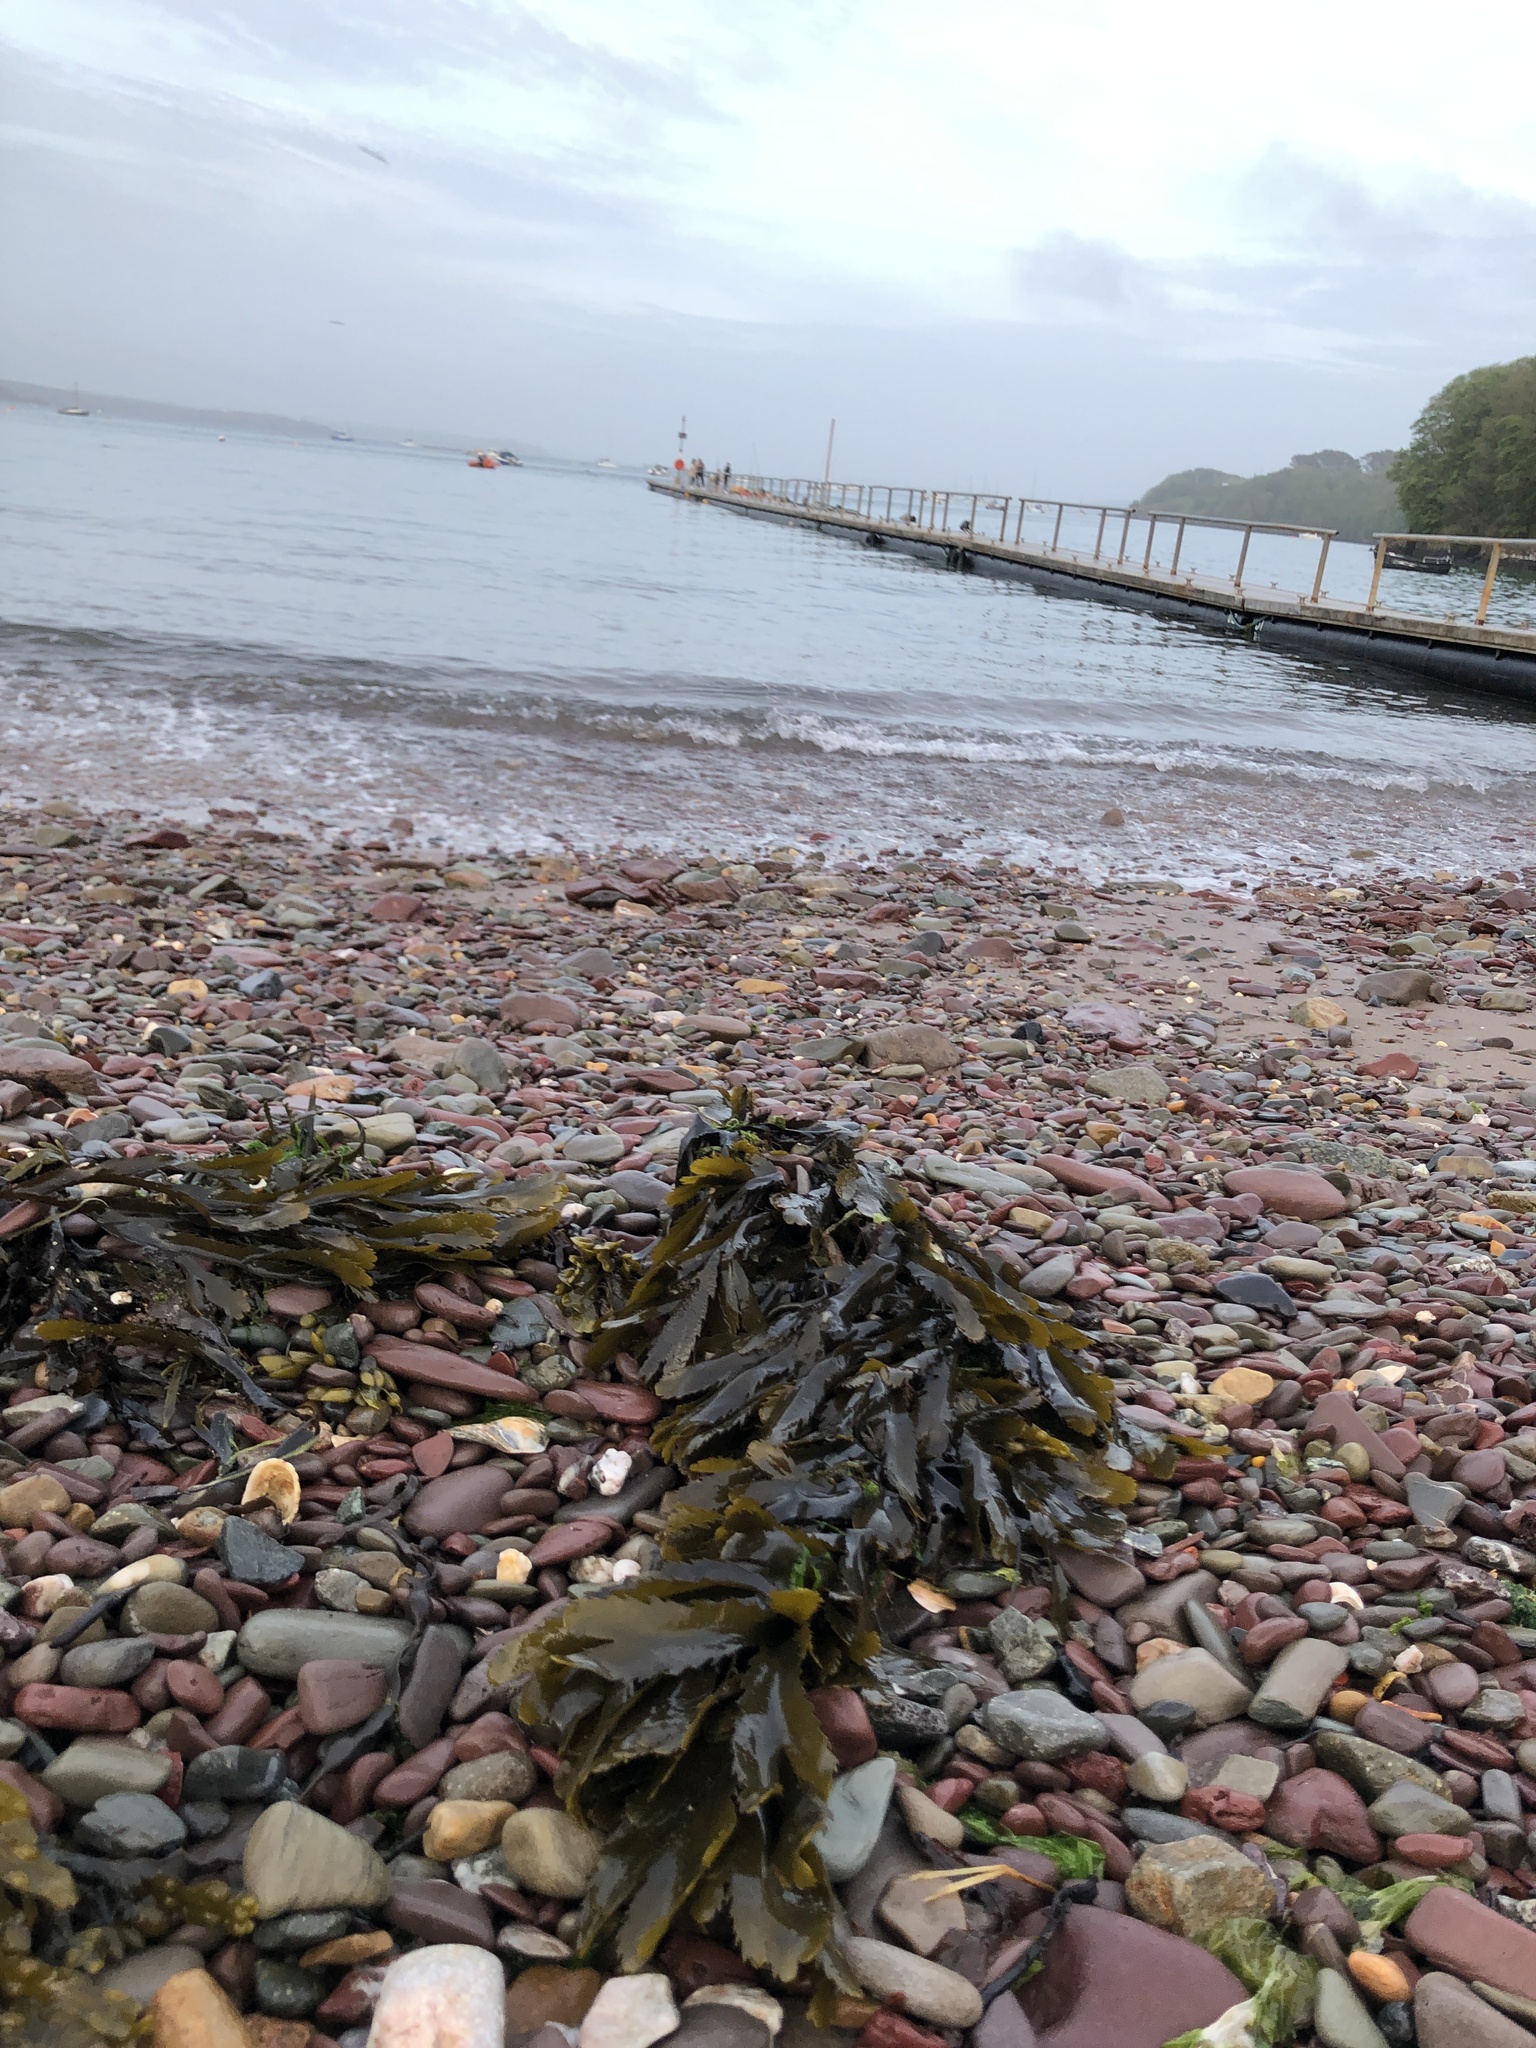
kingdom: Chromista
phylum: Ochrophyta
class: Phaeophyceae
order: Fucales
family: Fucaceae
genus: Fucus
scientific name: Fucus serratus
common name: Toothed wrack
